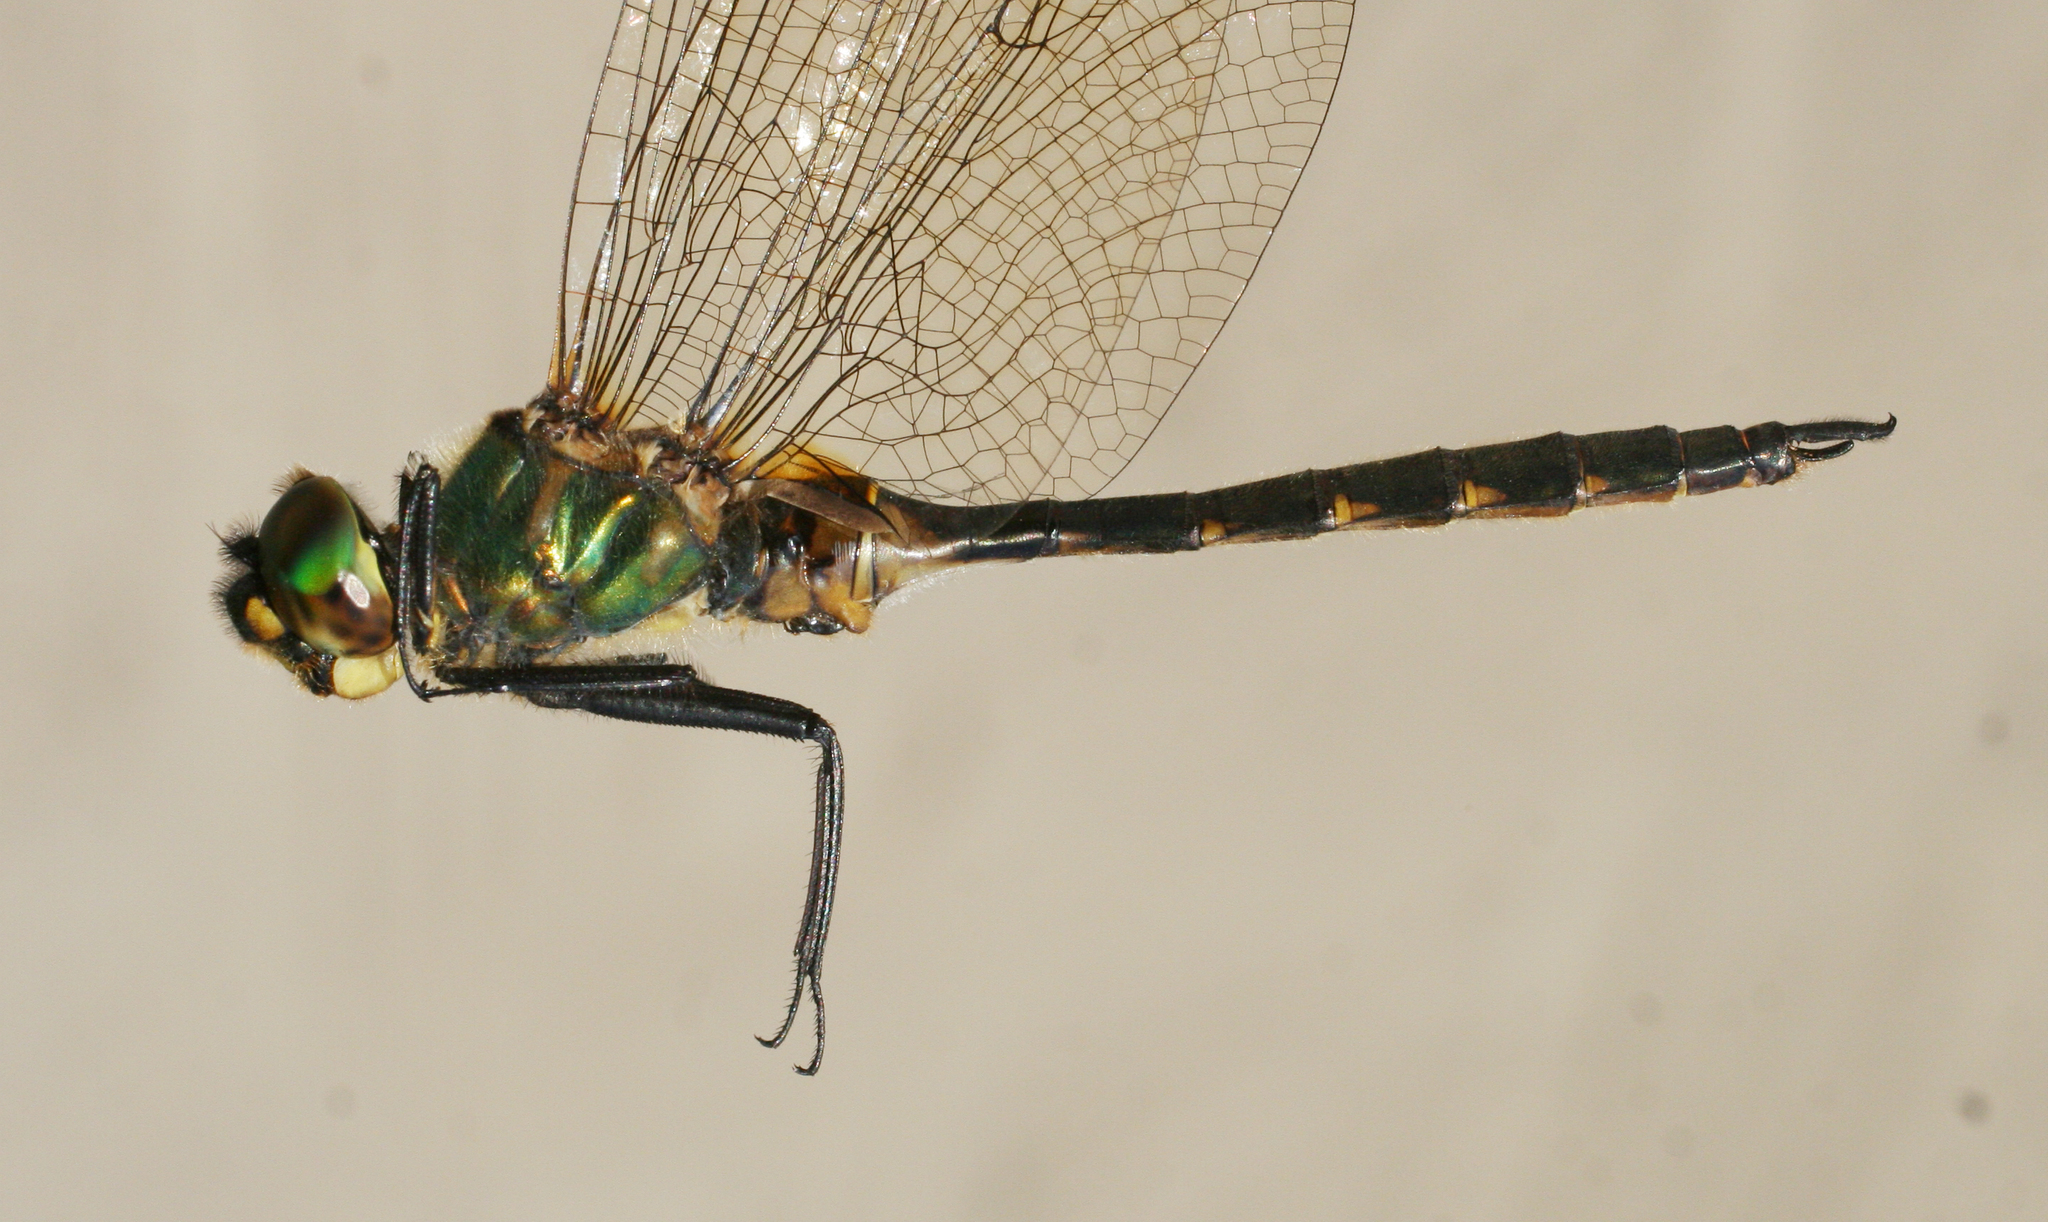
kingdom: Animalia
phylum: Arthropoda
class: Insecta
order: Odonata
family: Corduliidae
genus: Somatochlora
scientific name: Somatochlora flavomaculata
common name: Yellow-spotted emerald
